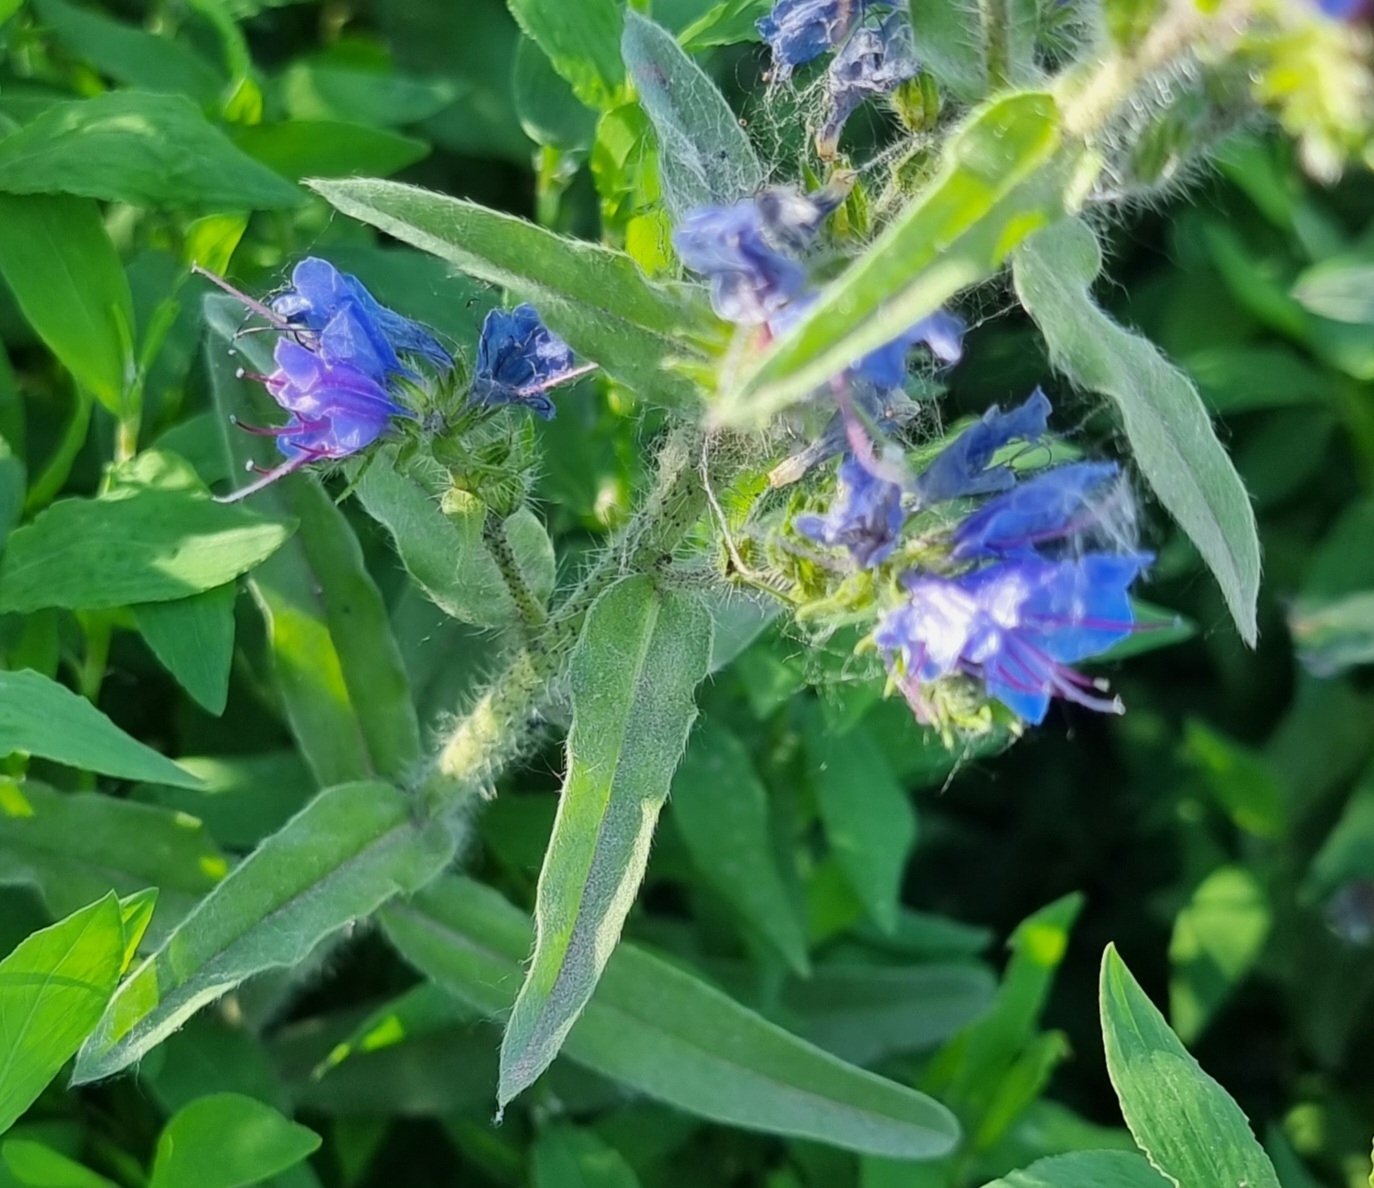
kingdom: Plantae
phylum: Tracheophyta
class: Magnoliopsida
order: Boraginales
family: Boraginaceae
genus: Echium
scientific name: Echium vulgare
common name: Common viper's bugloss
